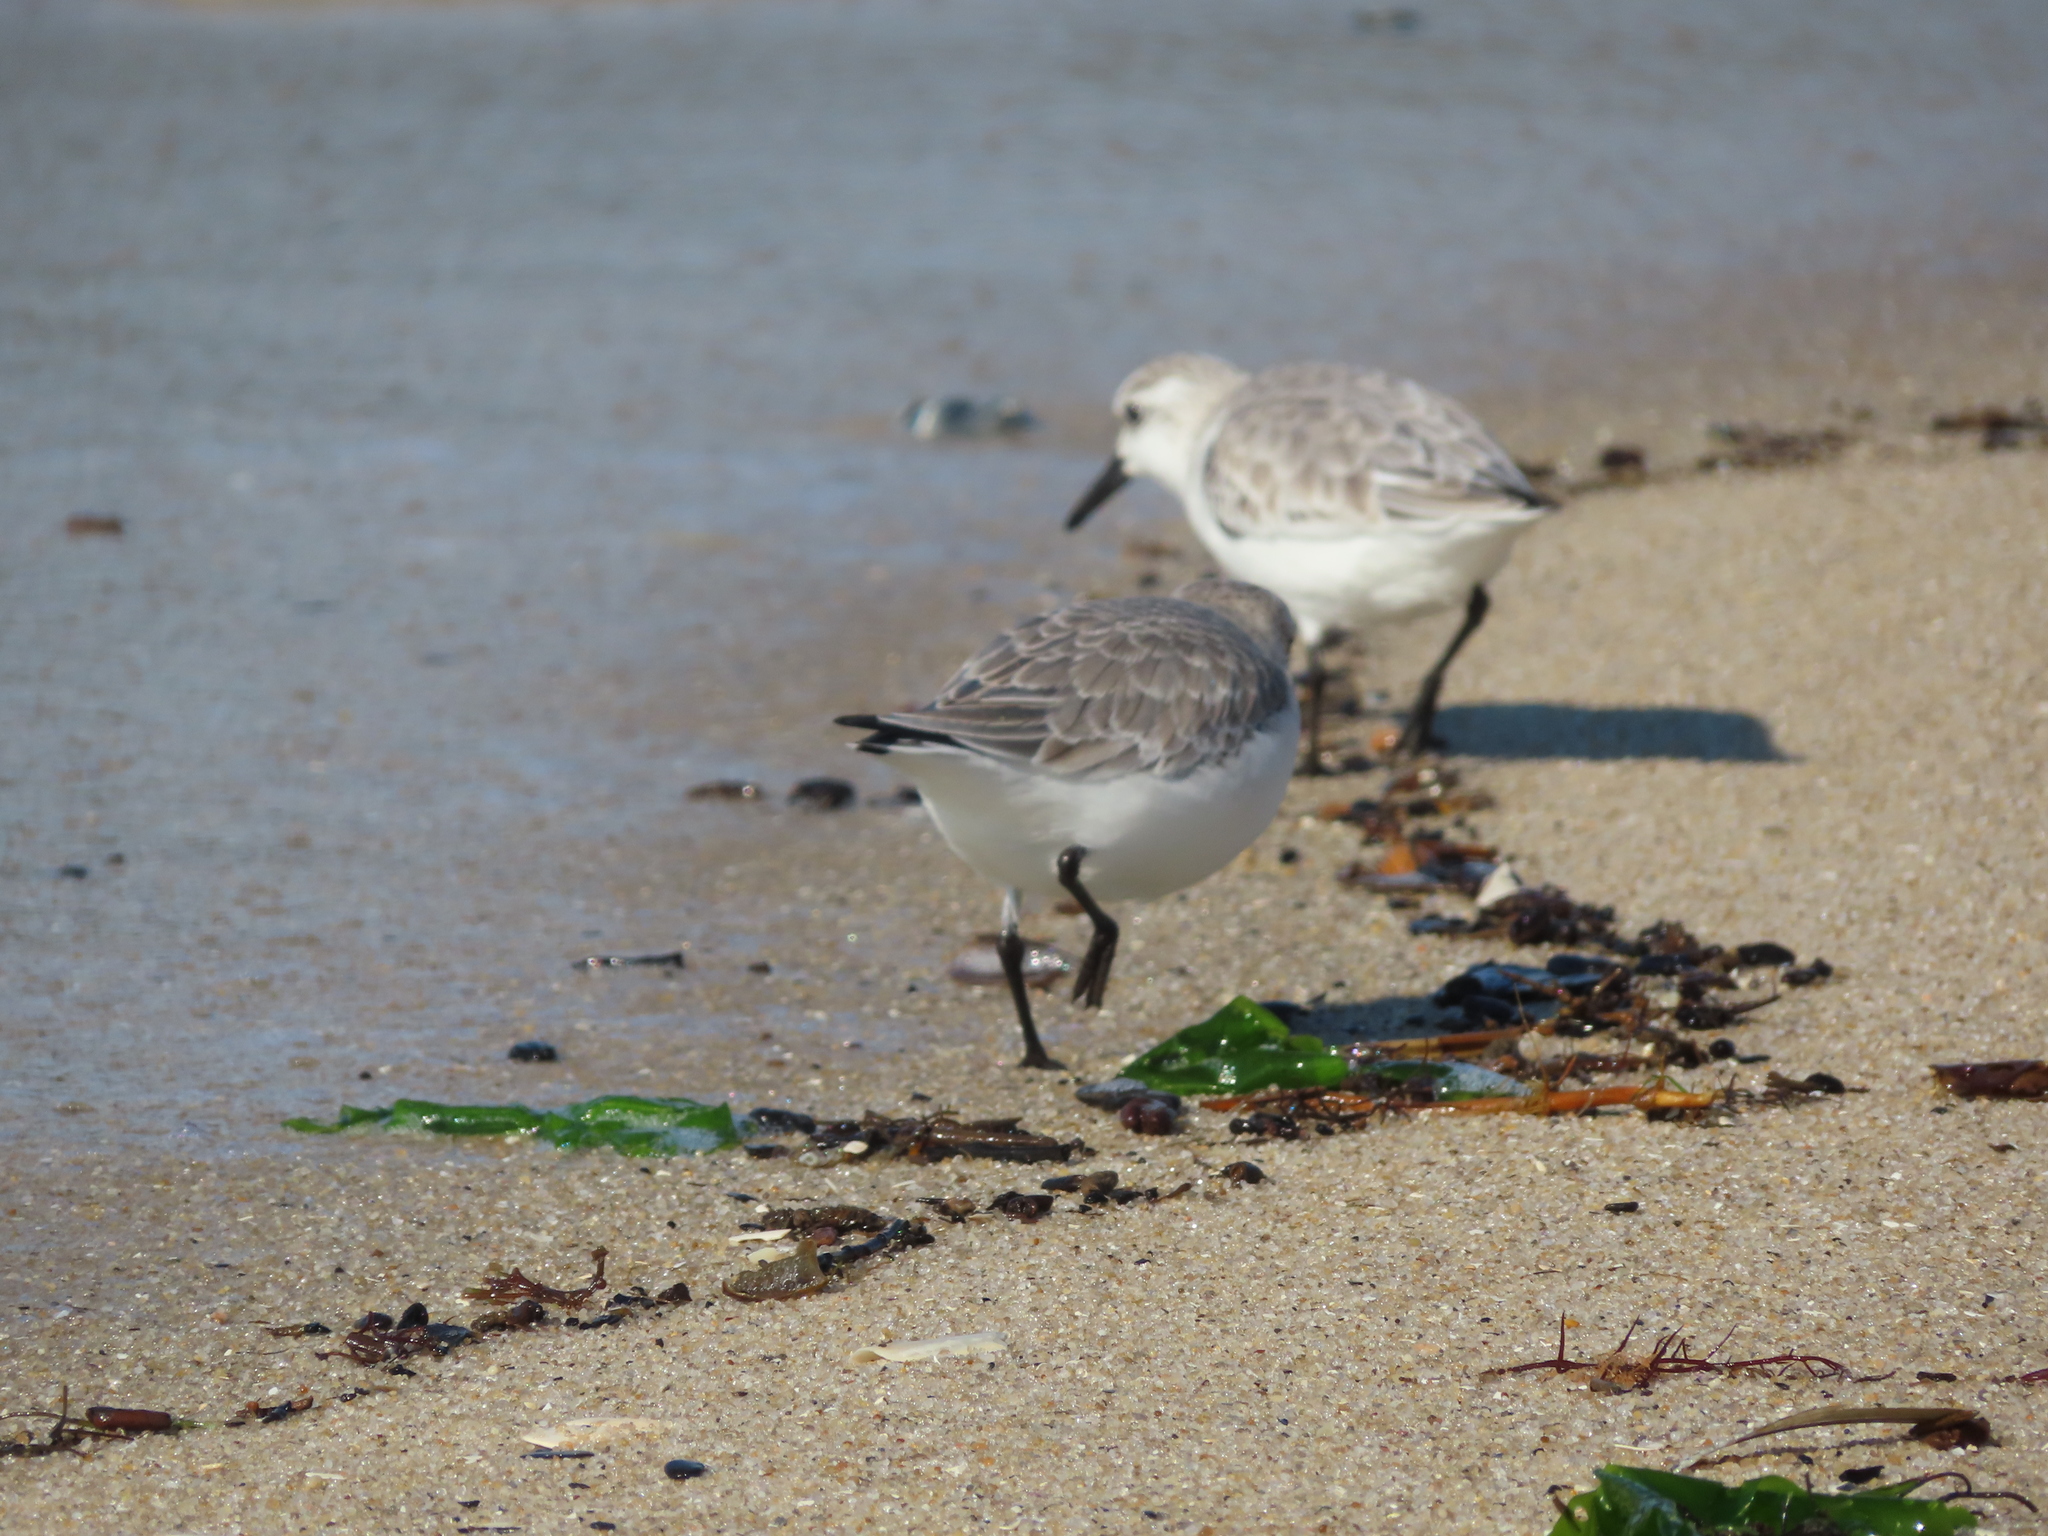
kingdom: Animalia
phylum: Chordata
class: Aves
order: Charadriiformes
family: Scolopacidae
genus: Calidris
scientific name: Calidris alba
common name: Sanderling
